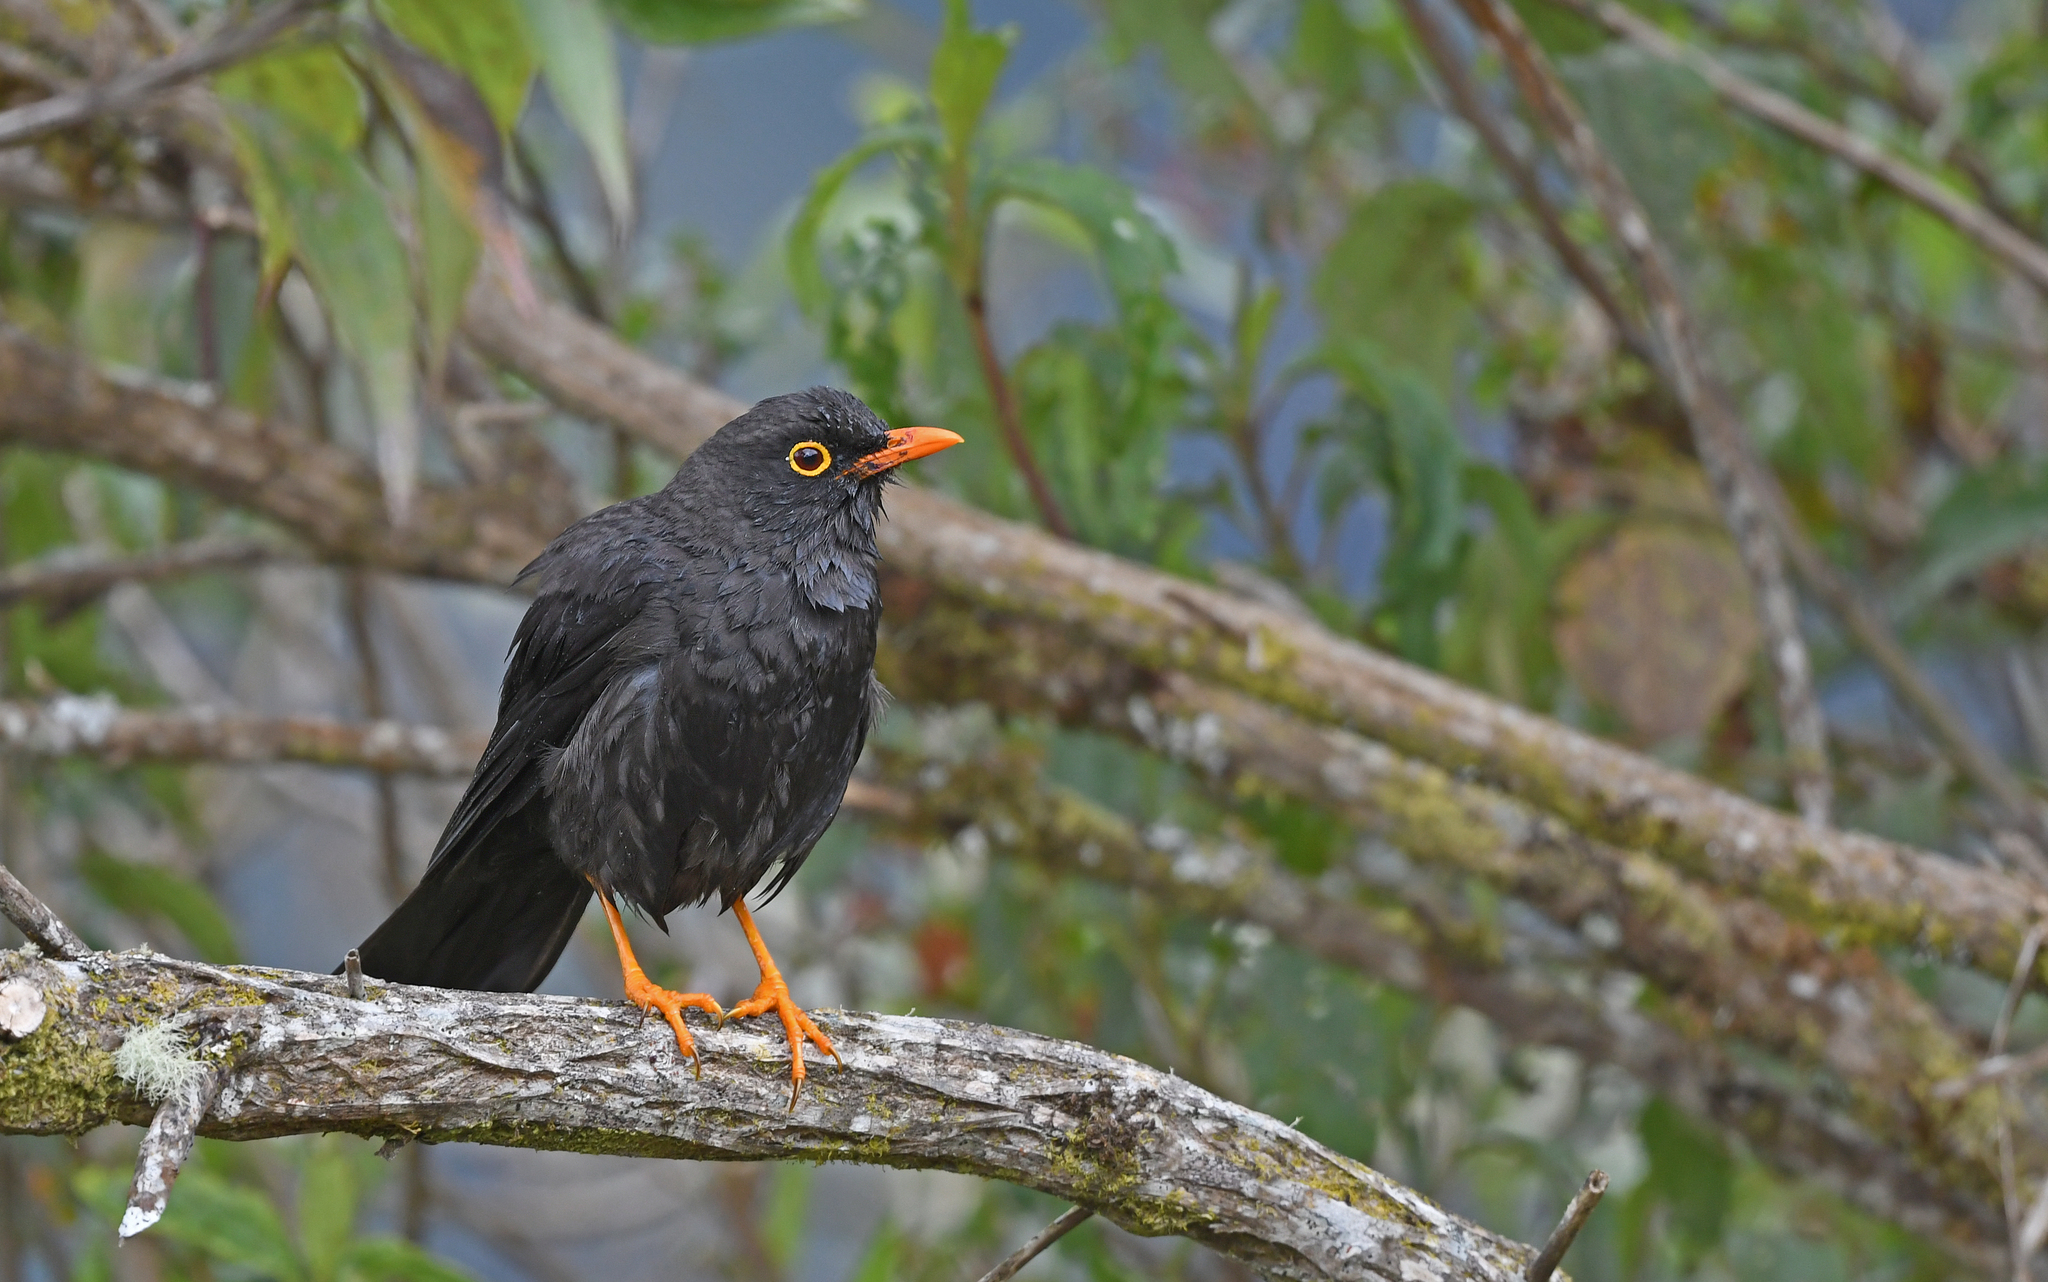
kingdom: Animalia
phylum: Chordata
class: Aves
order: Passeriformes
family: Turdidae
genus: Turdus
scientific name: Turdus fuscater
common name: Great thrush
